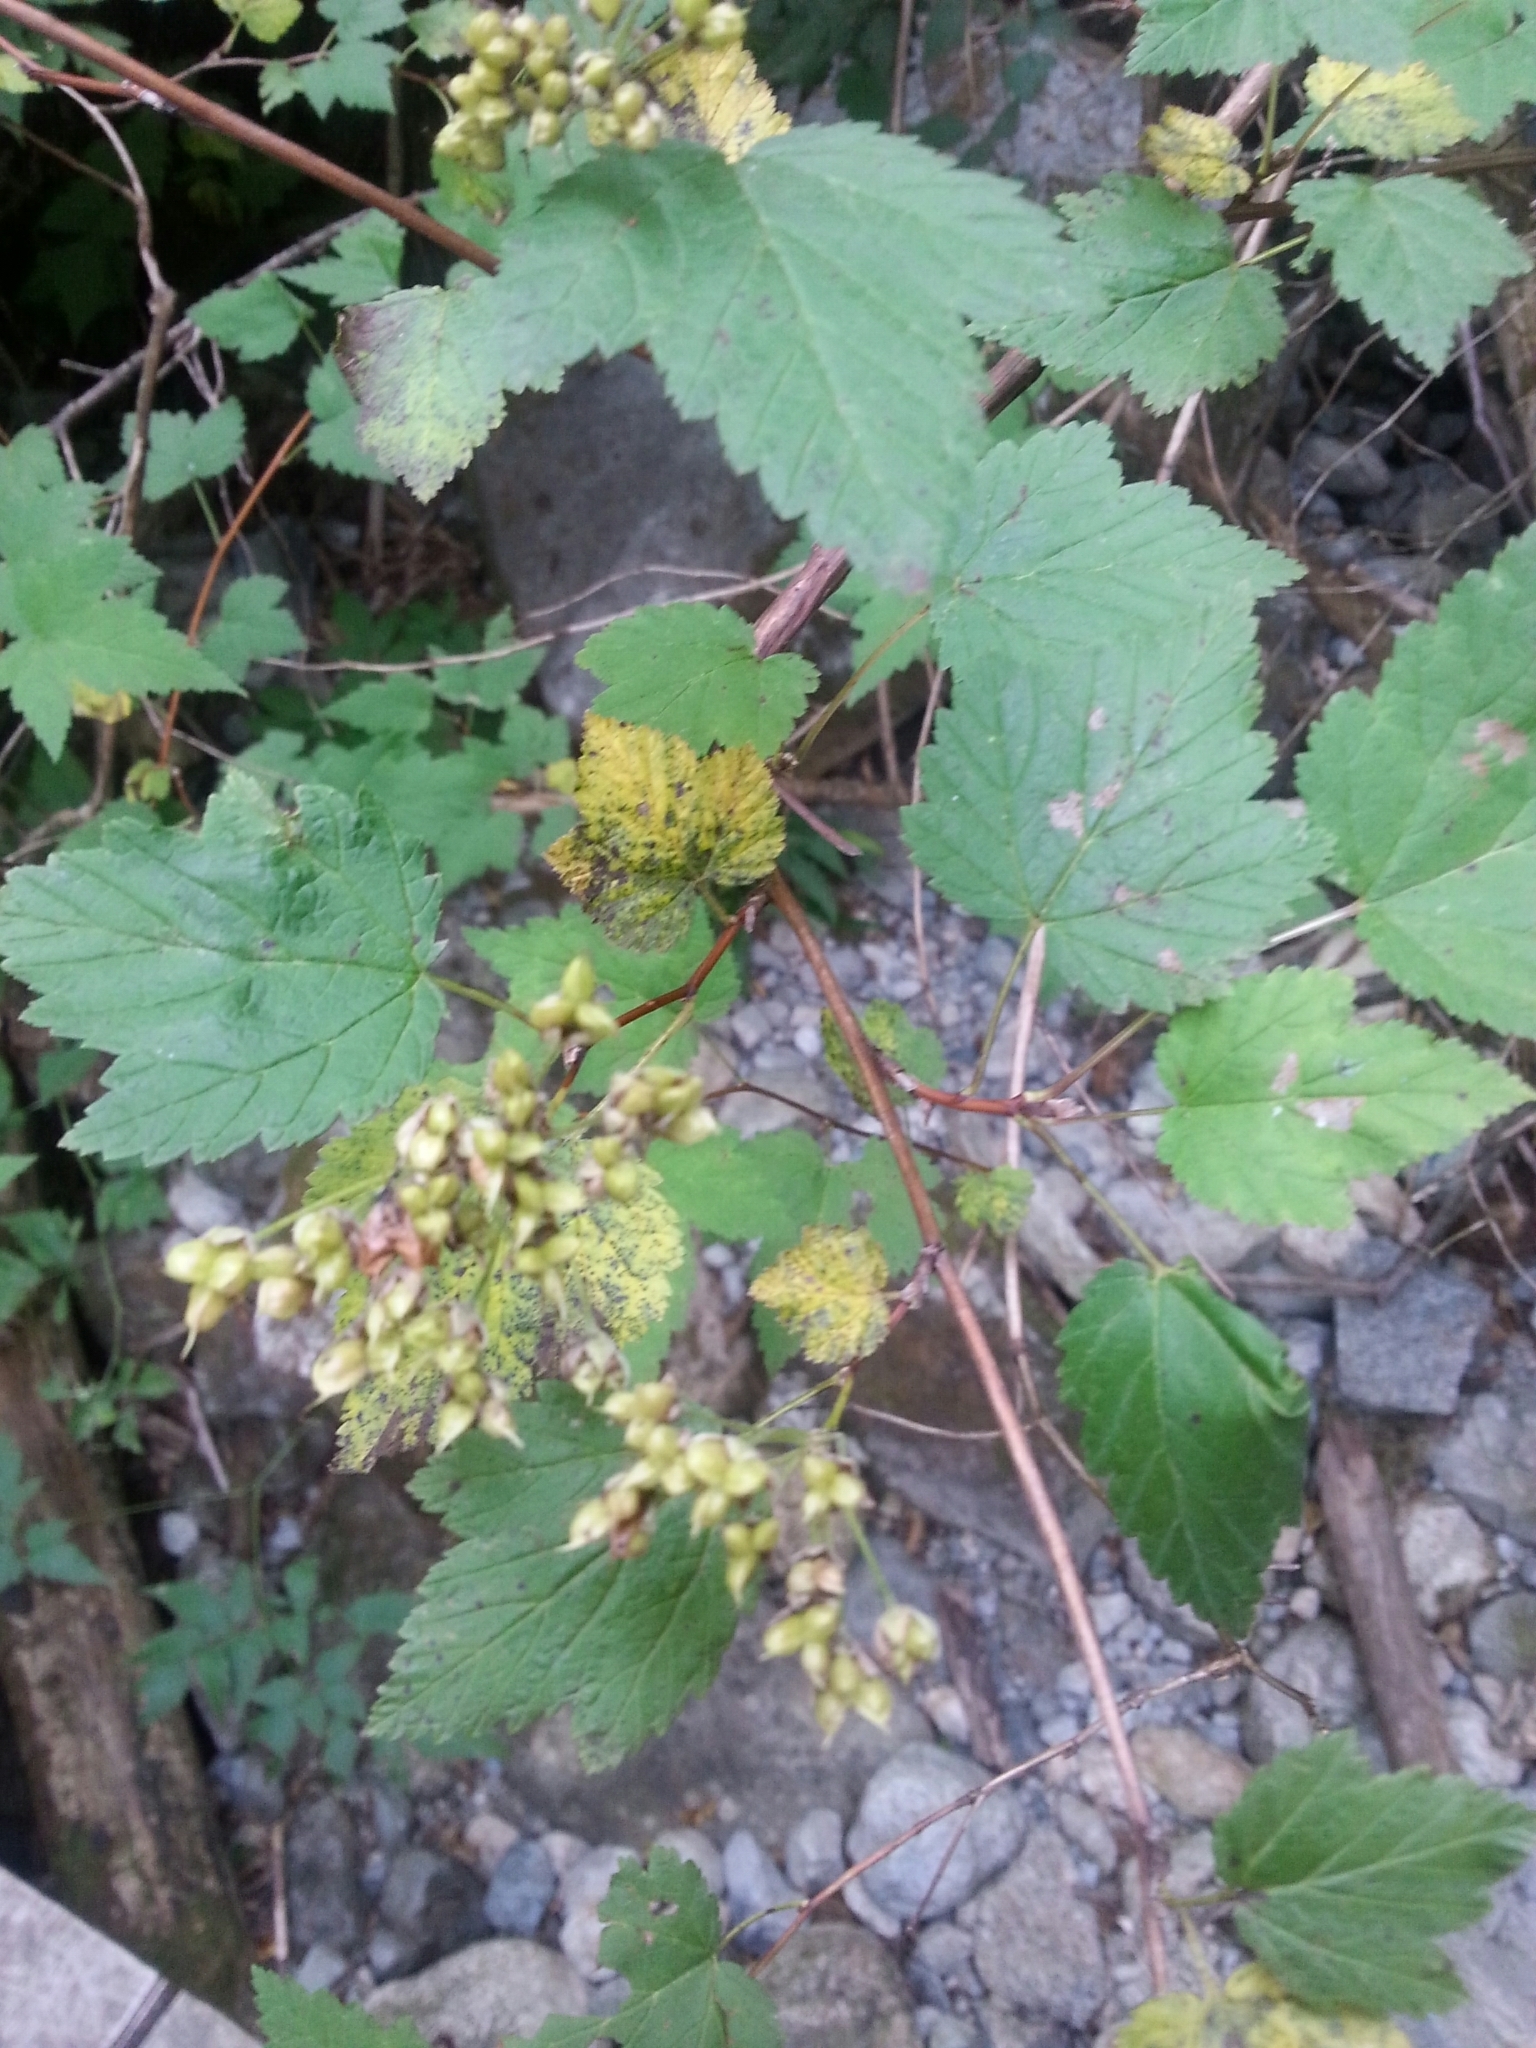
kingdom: Plantae
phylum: Tracheophyta
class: Magnoliopsida
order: Rosales
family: Rosaceae
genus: Physocarpus
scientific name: Physocarpus capitatus
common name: Pacific ninebark
